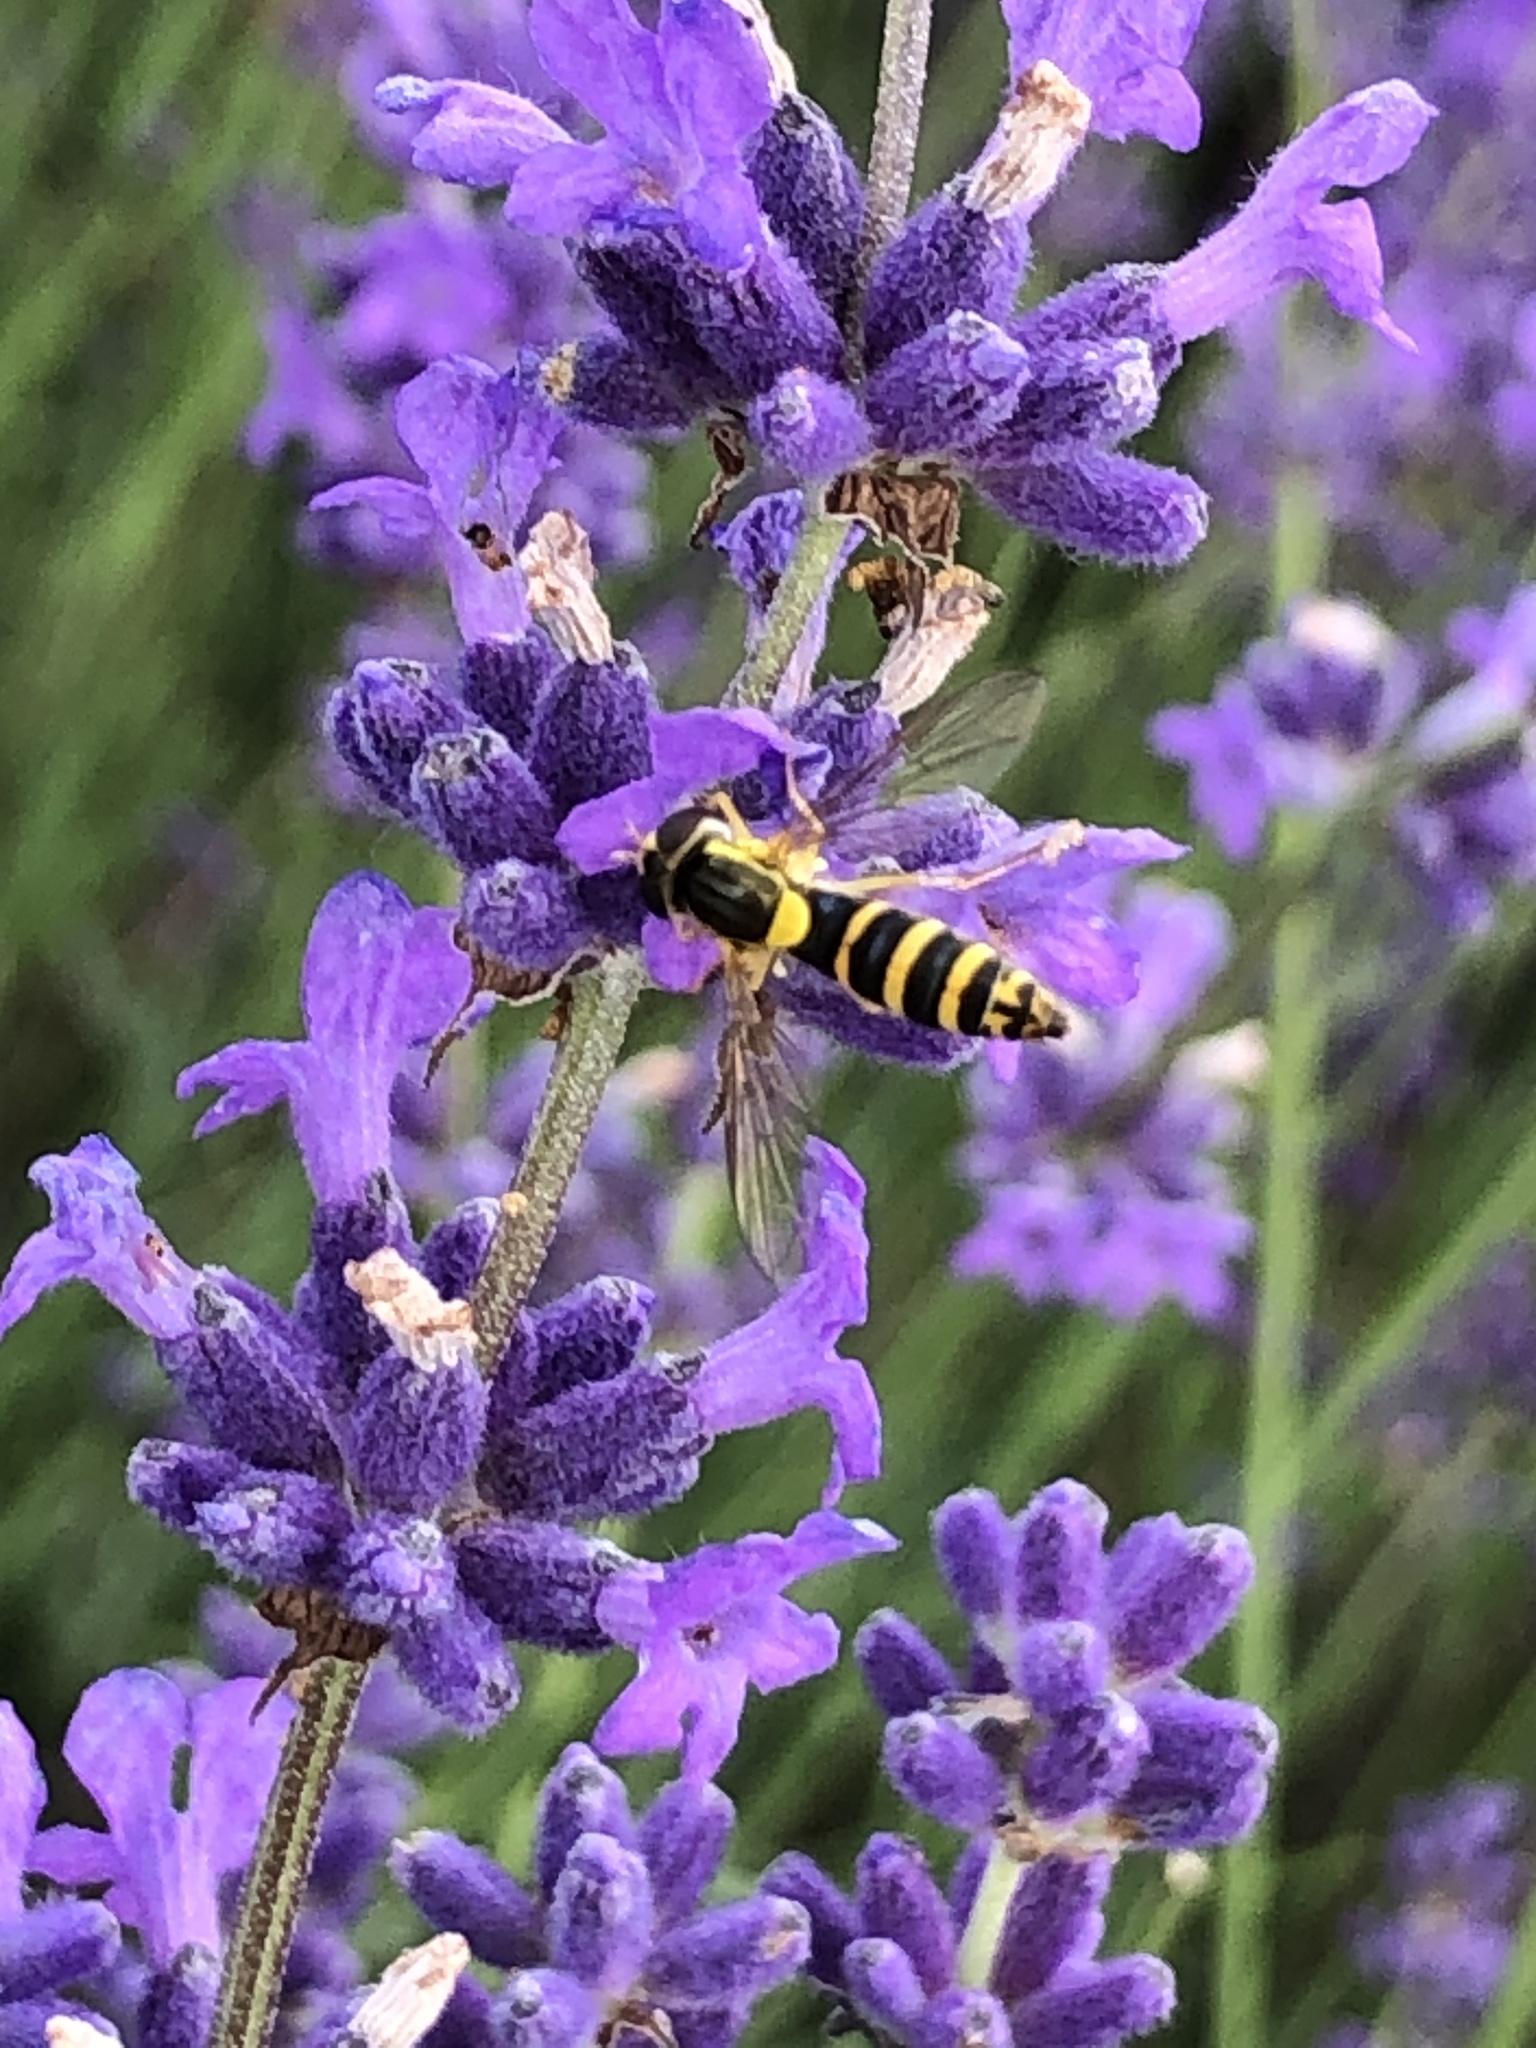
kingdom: Animalia
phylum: Arthropoda
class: Insecta
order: Diptera
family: Syrphidae
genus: Sphaerophoria
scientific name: Sphaerophoria
